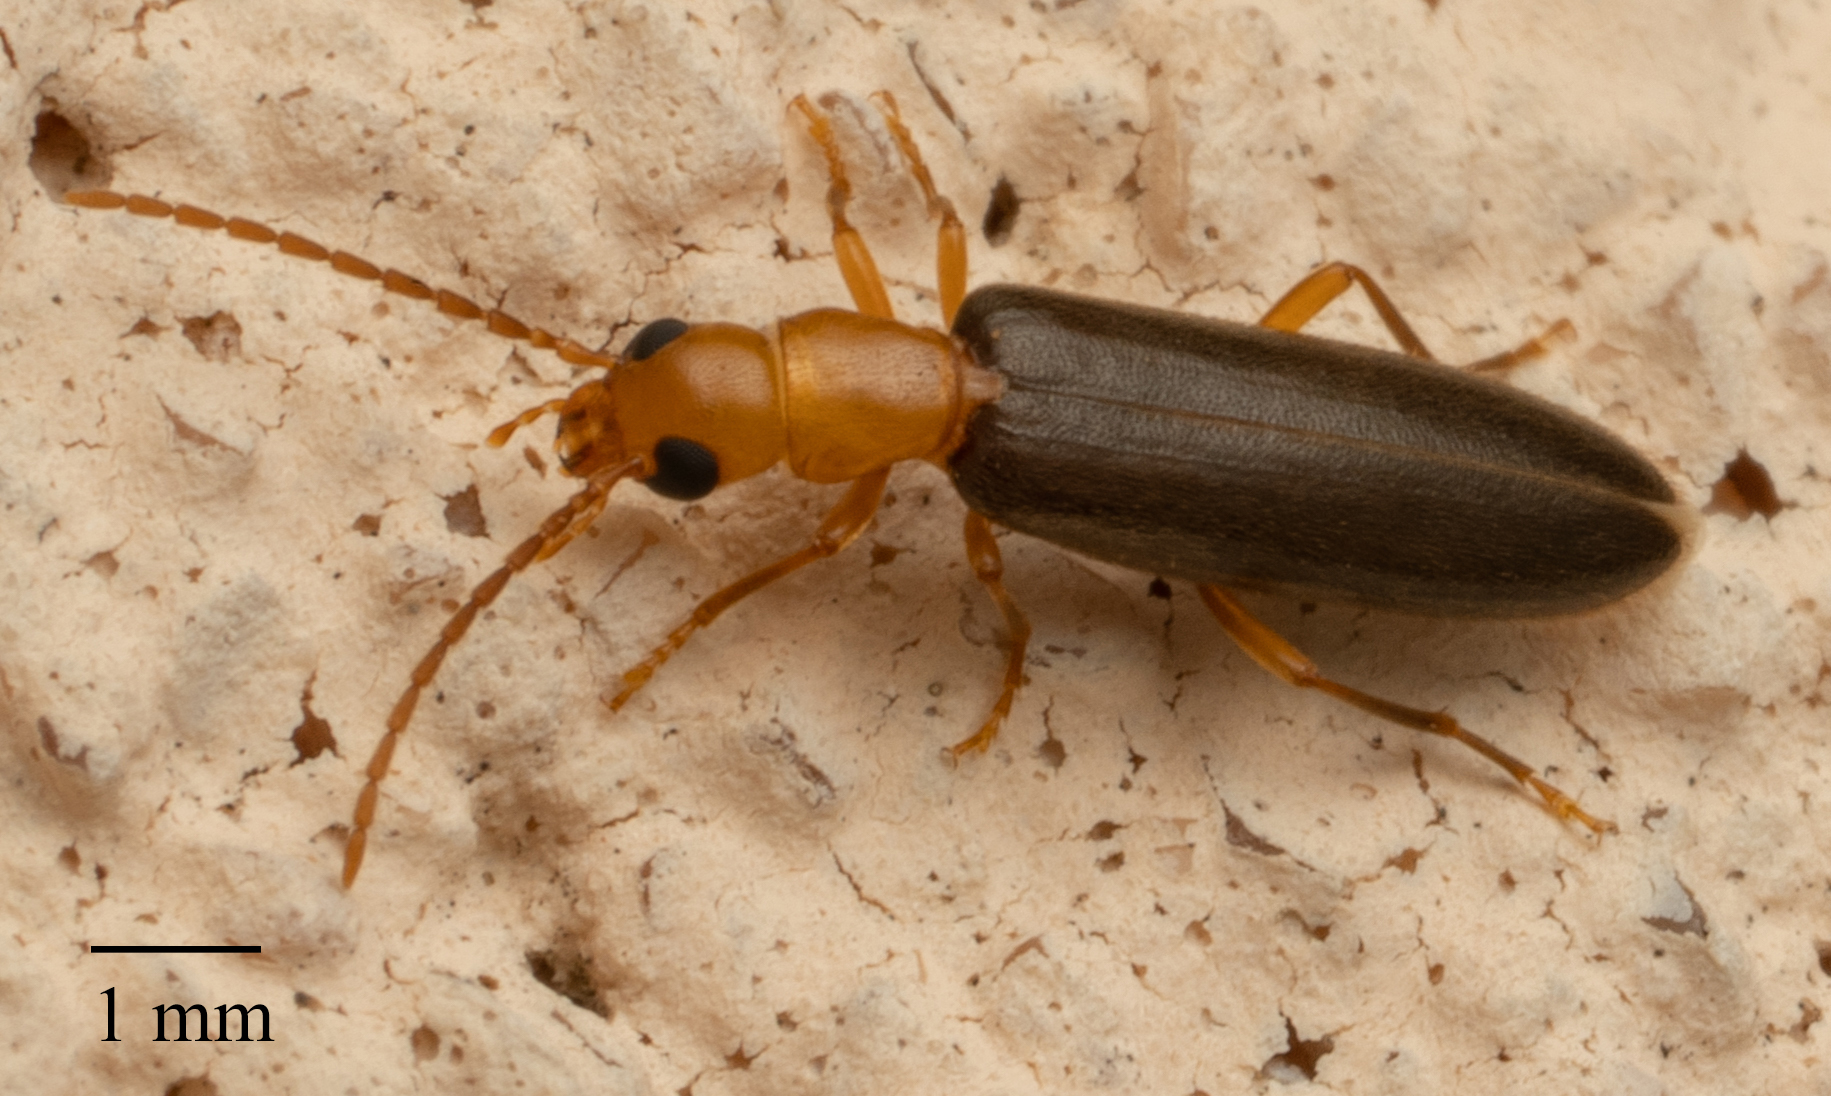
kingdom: Animalia
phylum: Arthropoda
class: Insecta
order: Coleoptera
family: Oedemeridae
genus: Xanthochroina
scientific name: Xanthochroina bicolor
